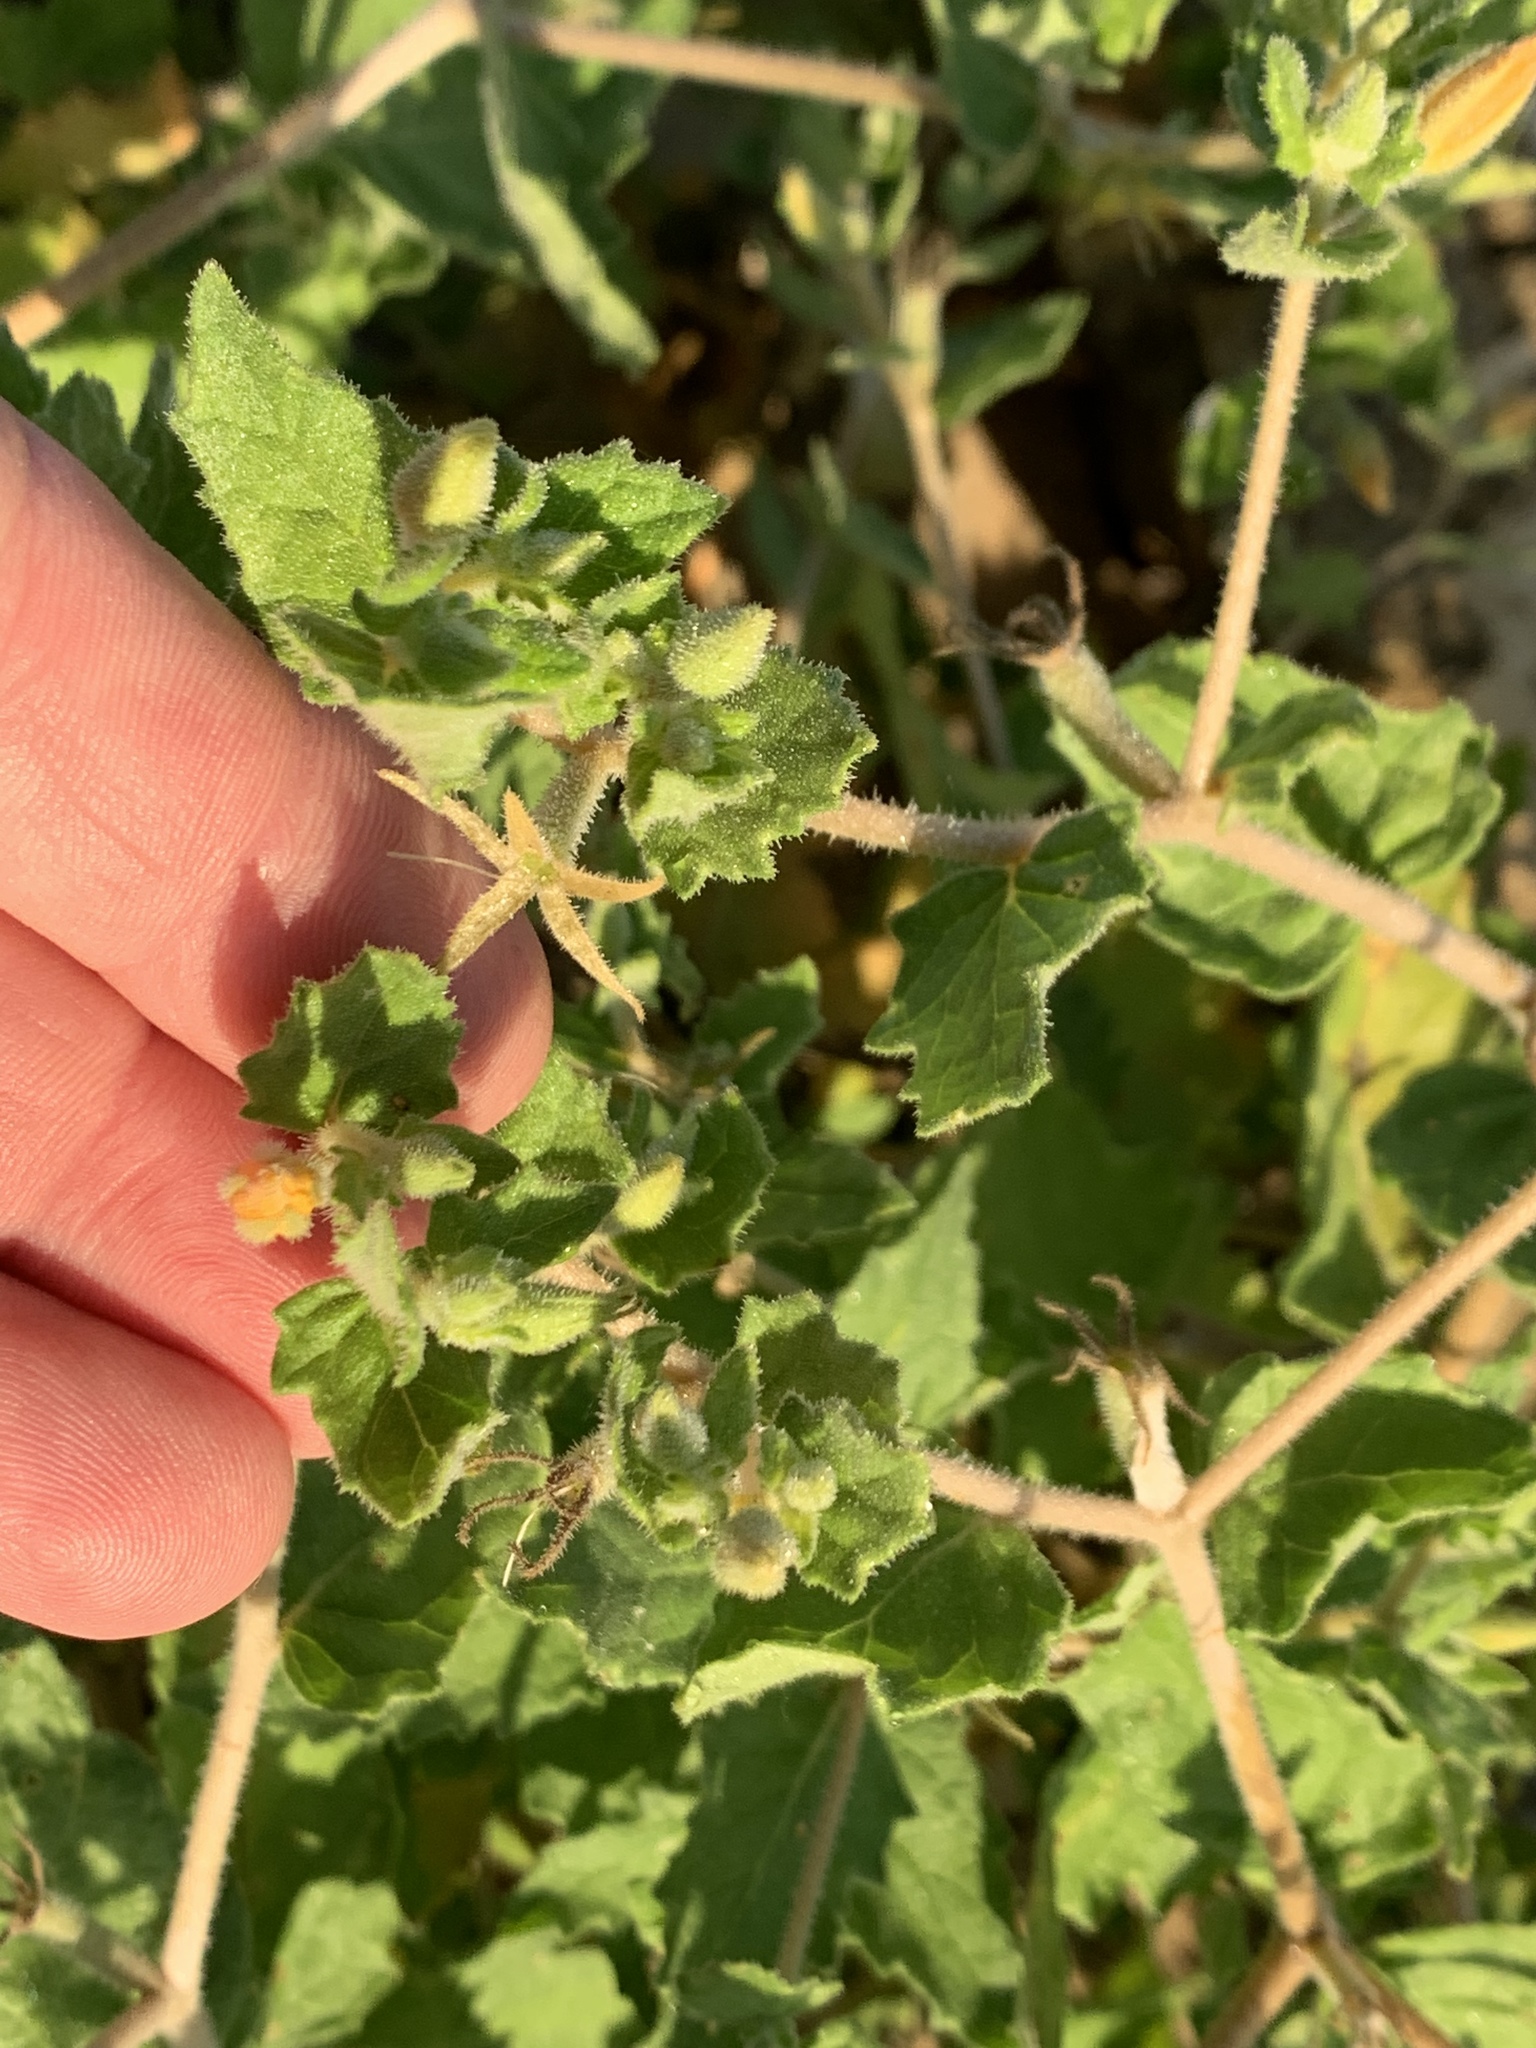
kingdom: Plantae
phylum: Tracheophyta
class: Magnoliopsida
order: Cornales
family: Loasaceae
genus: Mentzelia
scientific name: Mentzelia oligosperma
